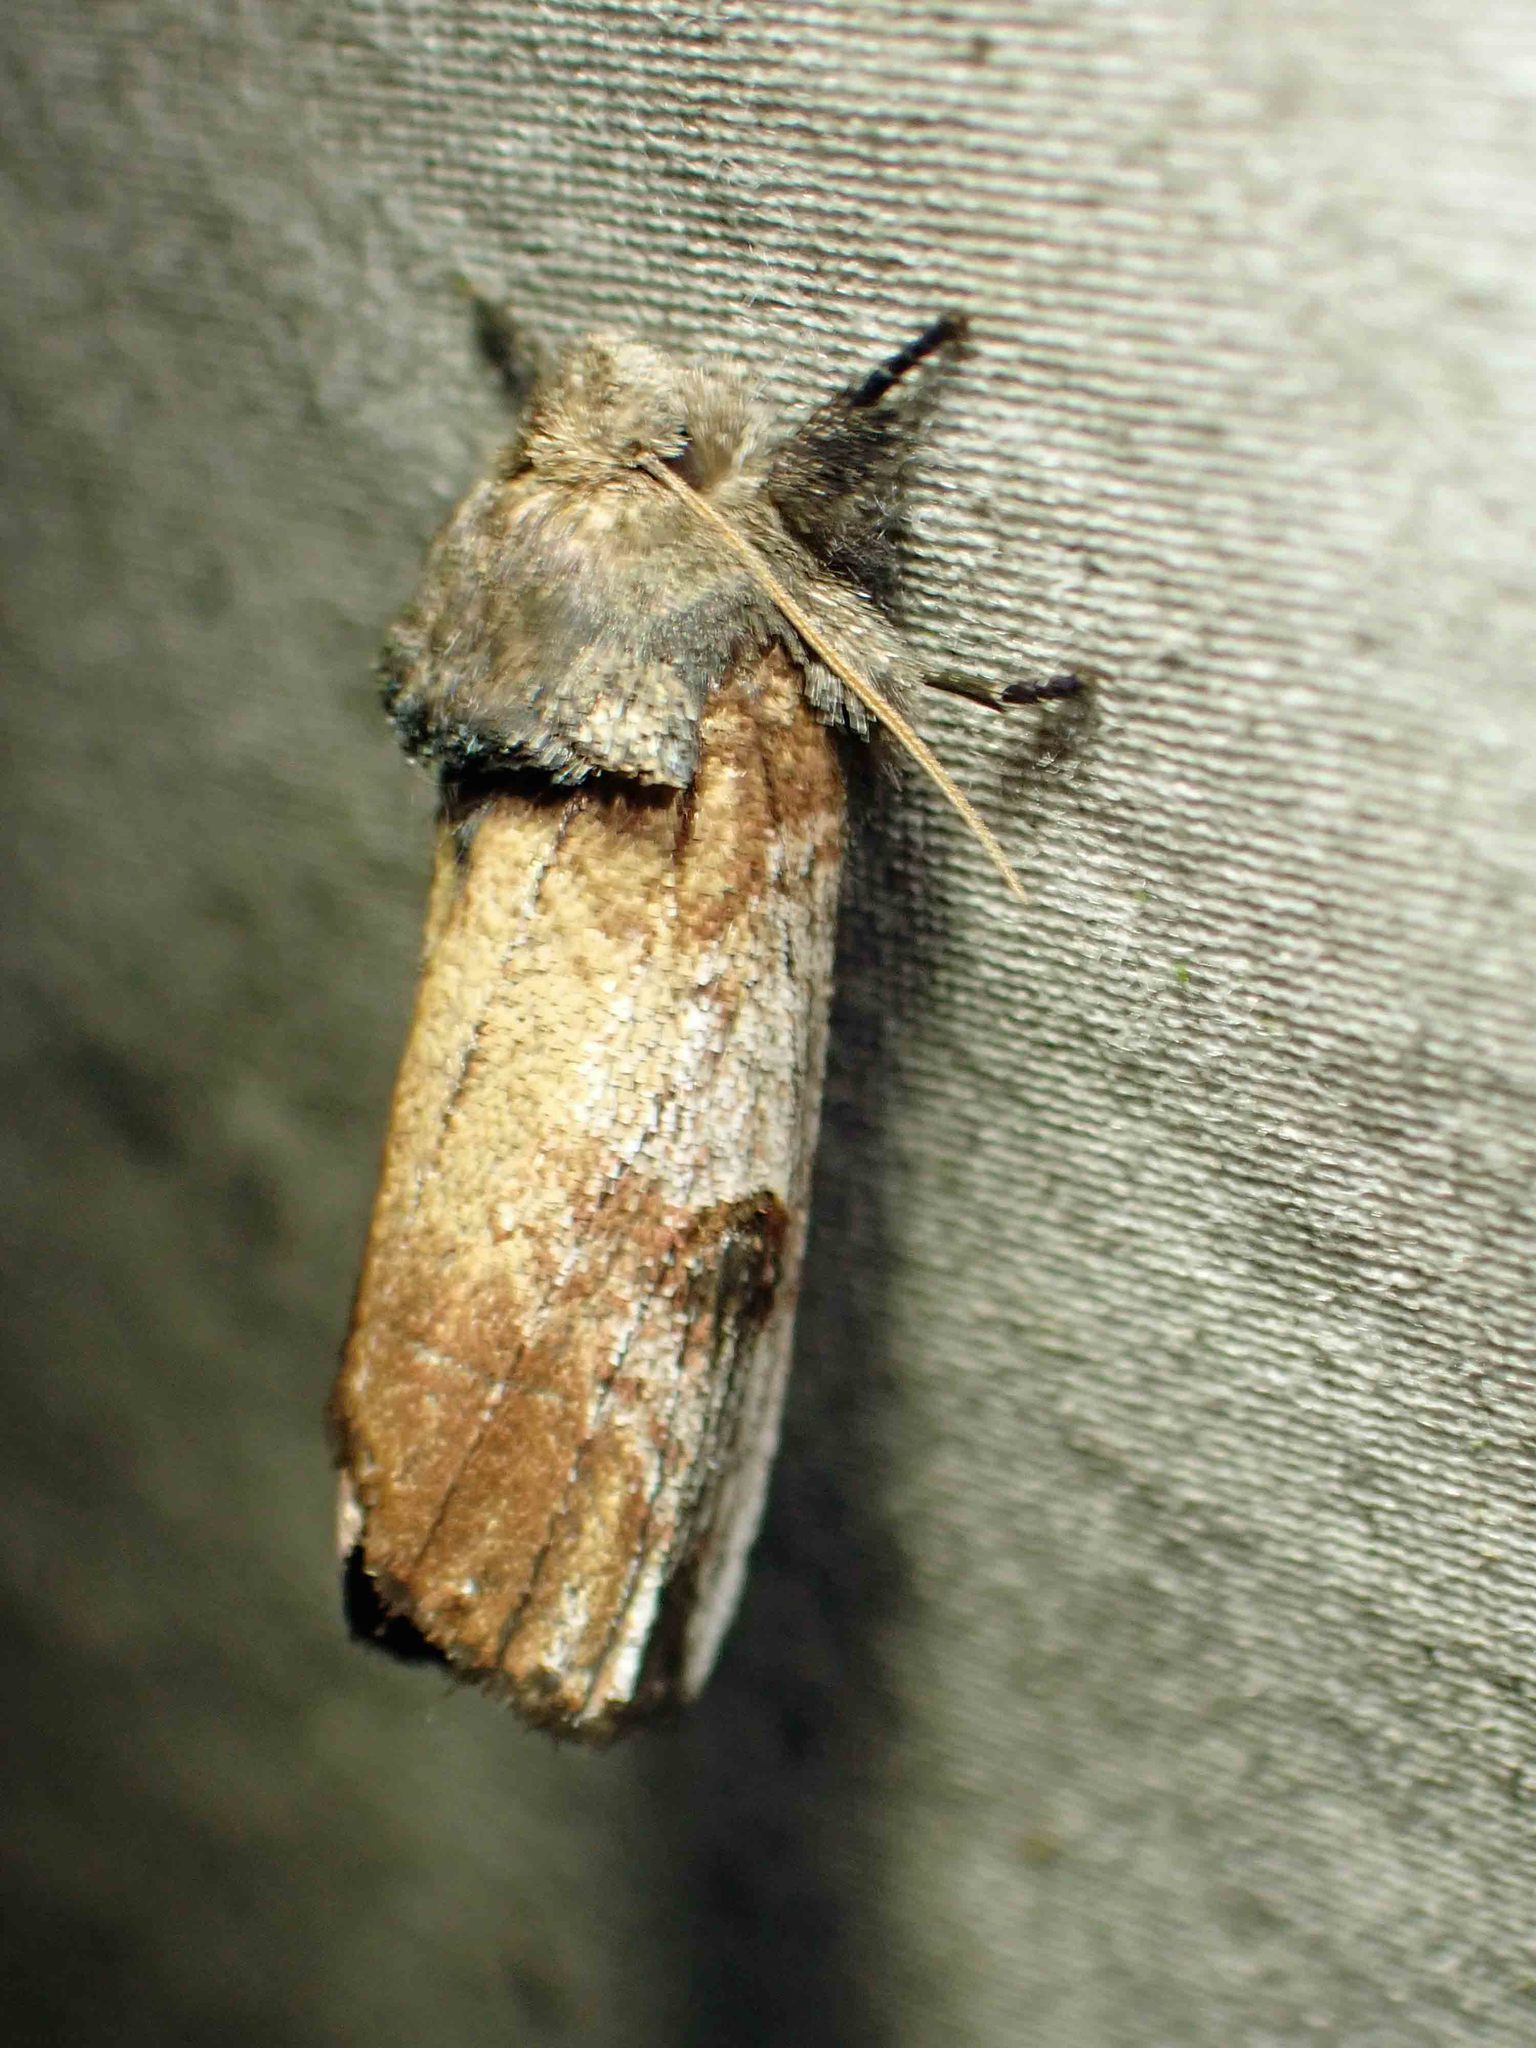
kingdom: Animalia
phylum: Arthropoda
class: Insecta
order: Lepidoptera
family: Notodontidae
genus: Schizura
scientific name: Schizura badia
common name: Chestnut schizura
